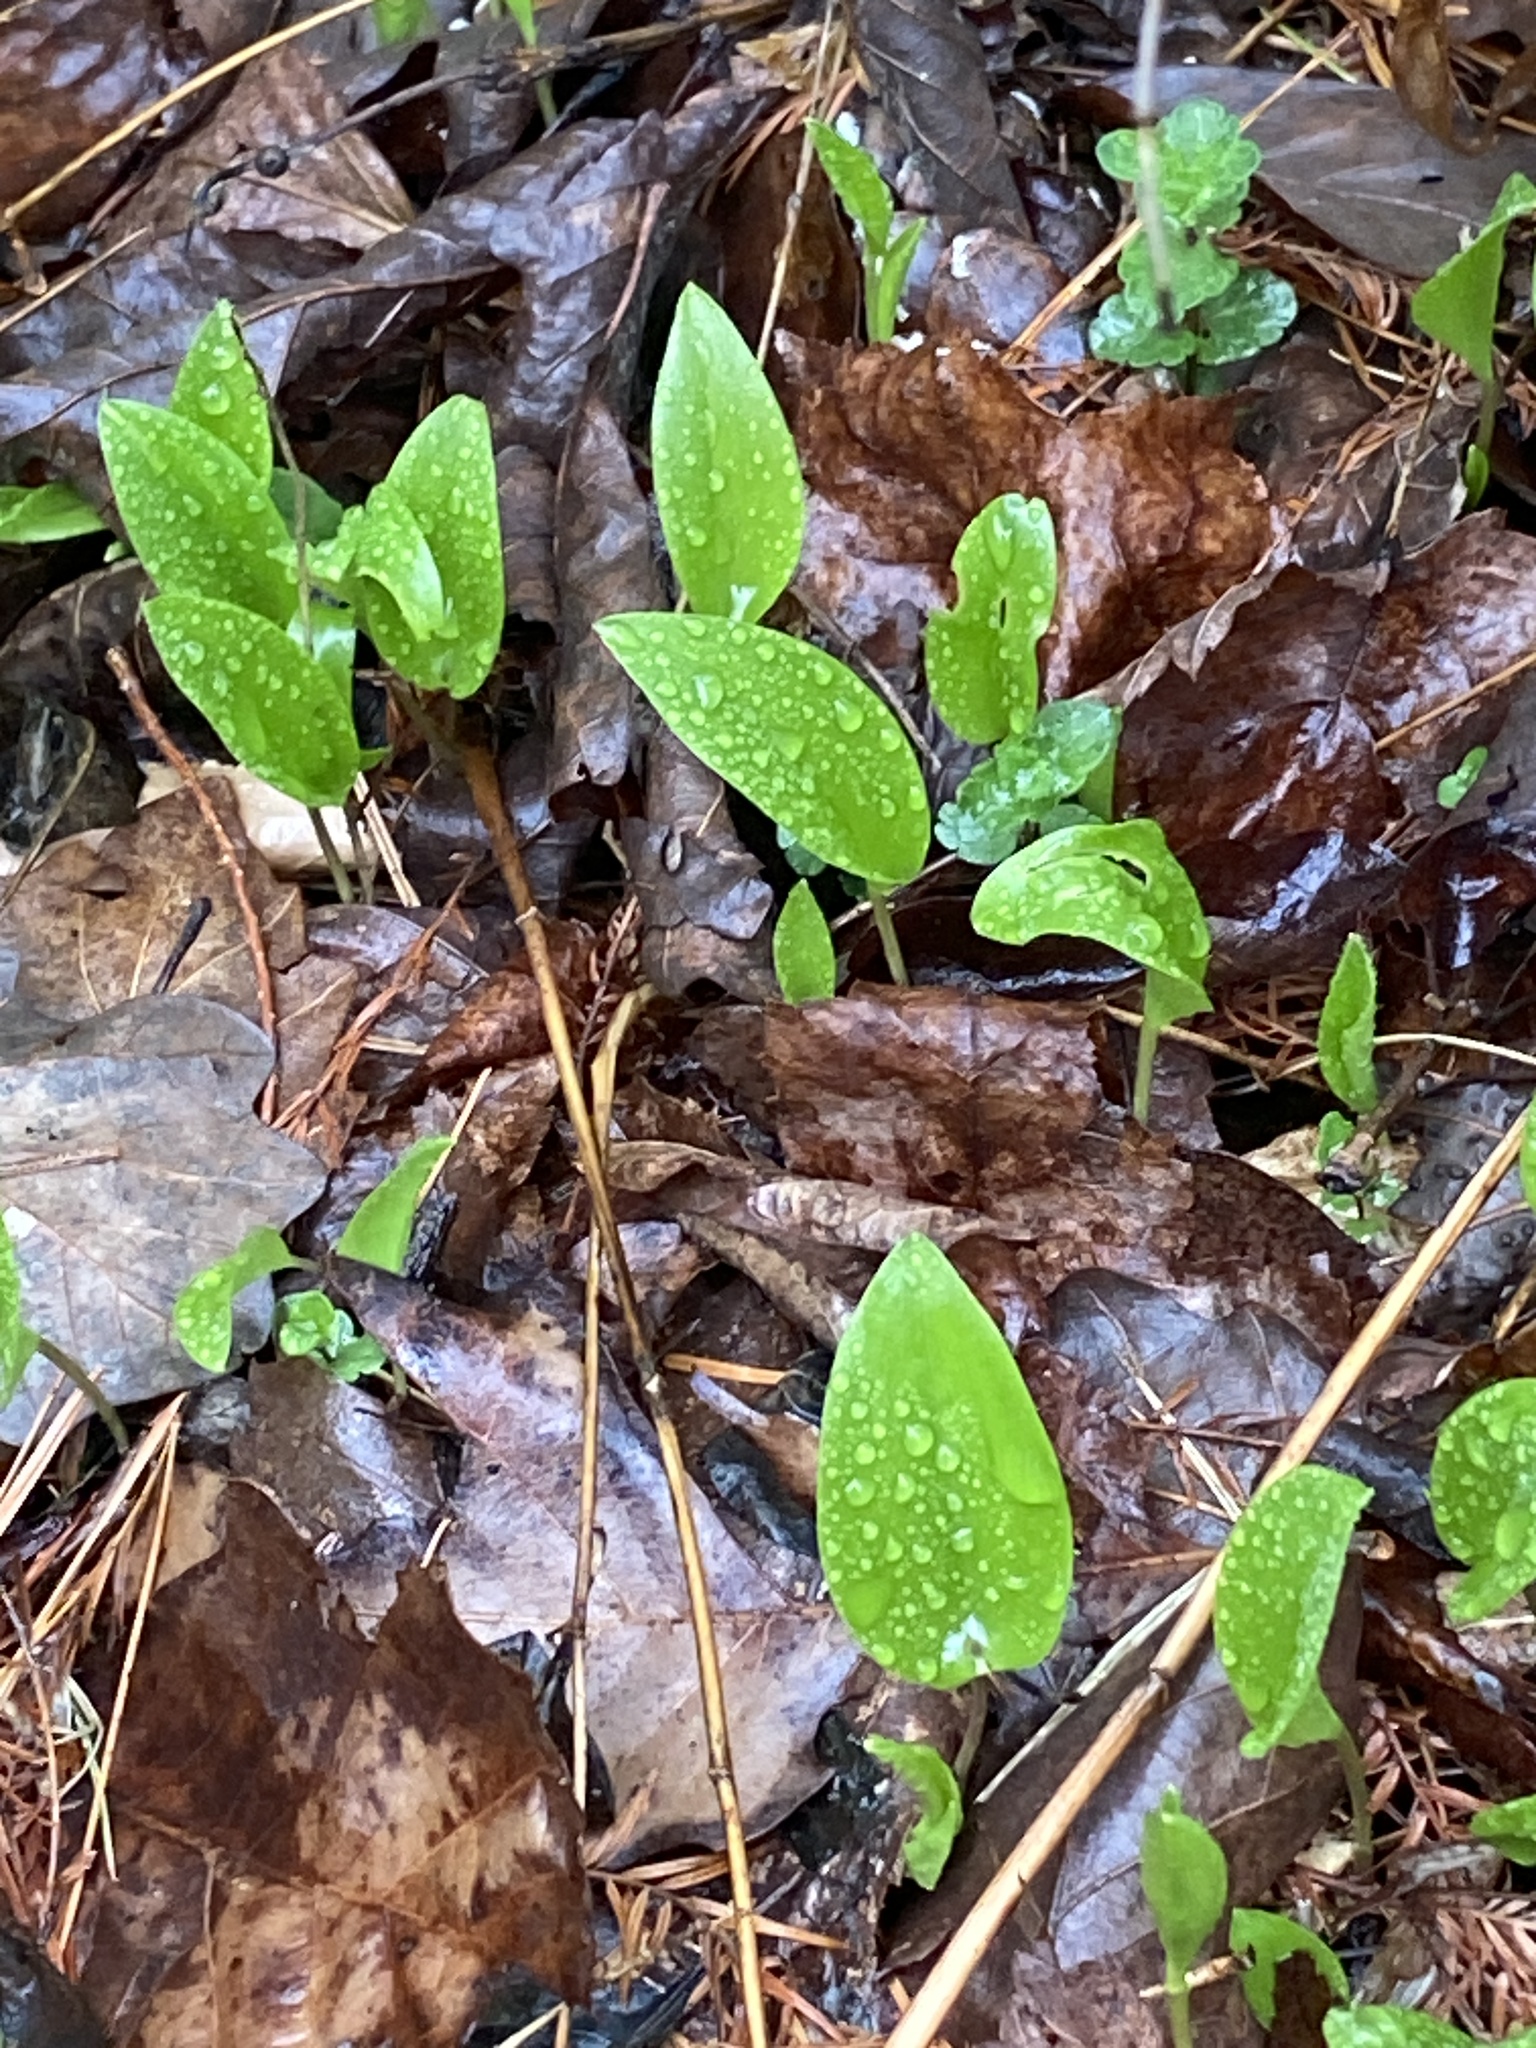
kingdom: Plantae
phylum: Tracheophyta
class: Liliopsida
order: Asparagales
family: Asparagaceae
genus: Maianthemum
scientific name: Maianthemum canadense
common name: False lily-of-the-valley
